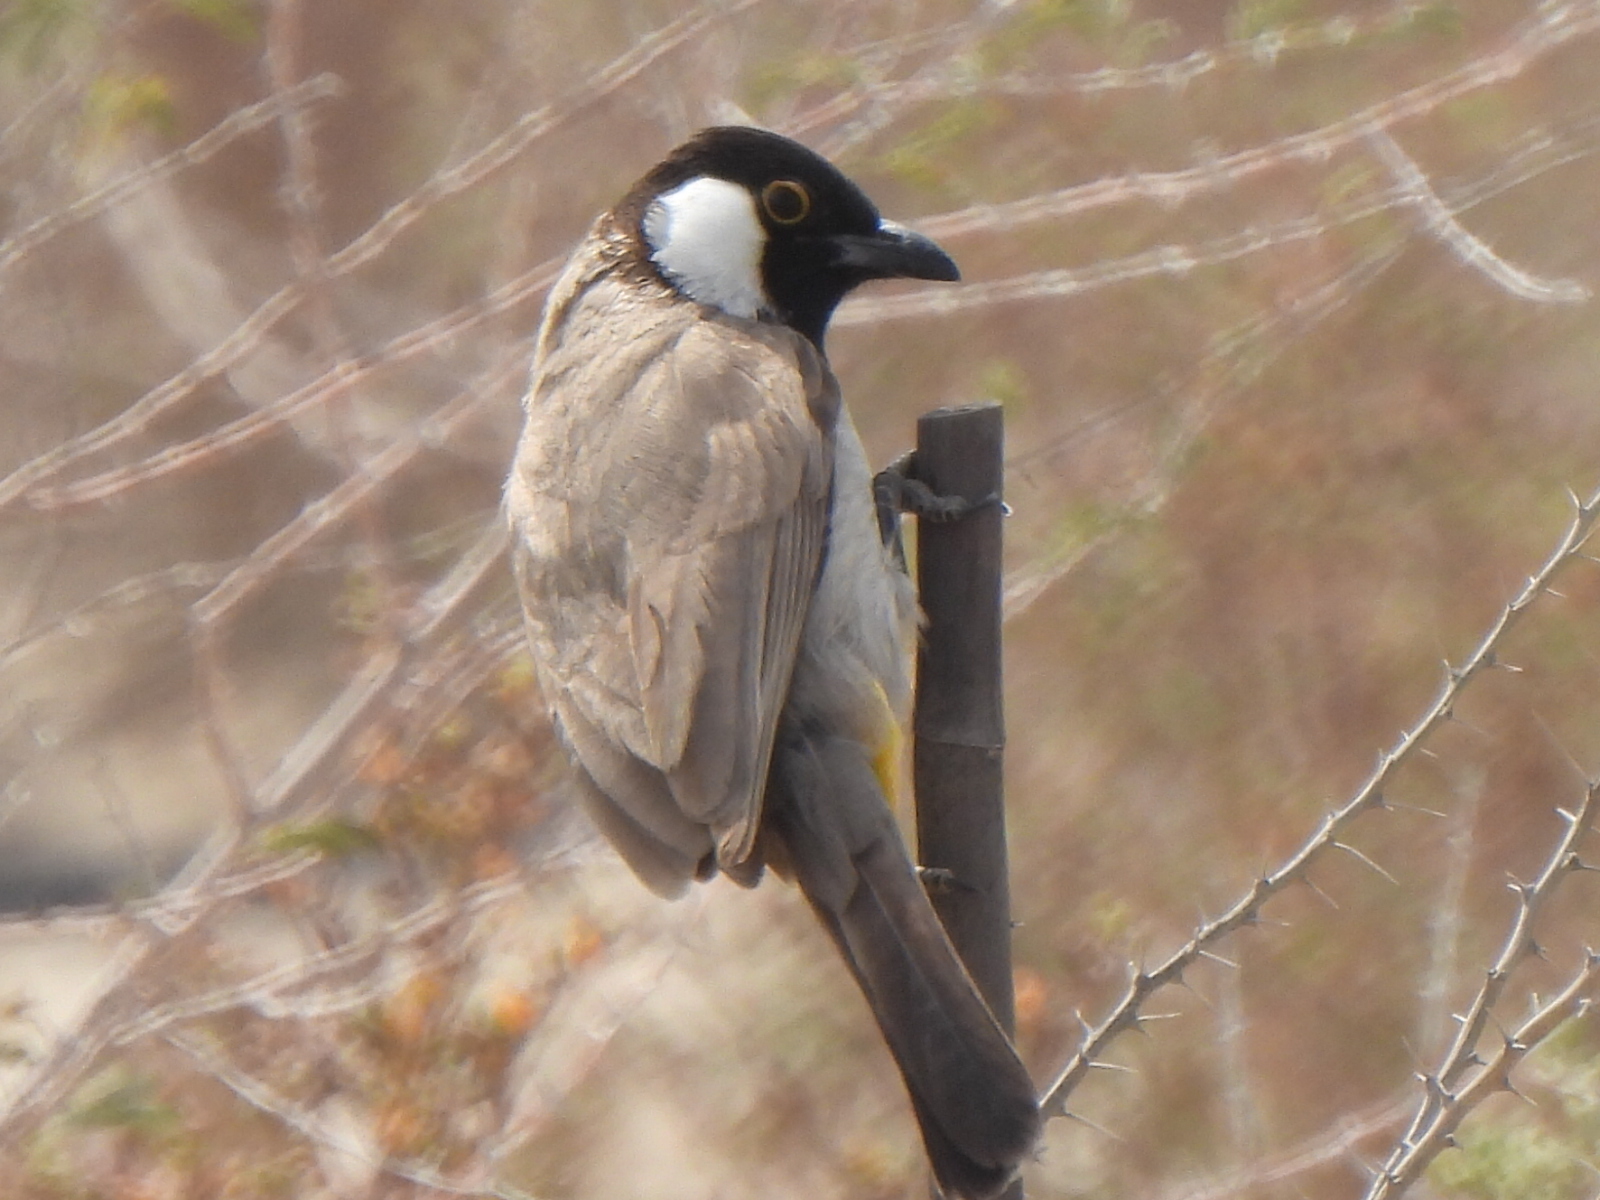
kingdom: Animalia
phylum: Chordata
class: Aves
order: Passeriformes
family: Pycnonotidae
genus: Pycnonotus
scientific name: Pycnonotus leucotis
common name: White-eared bulbul
